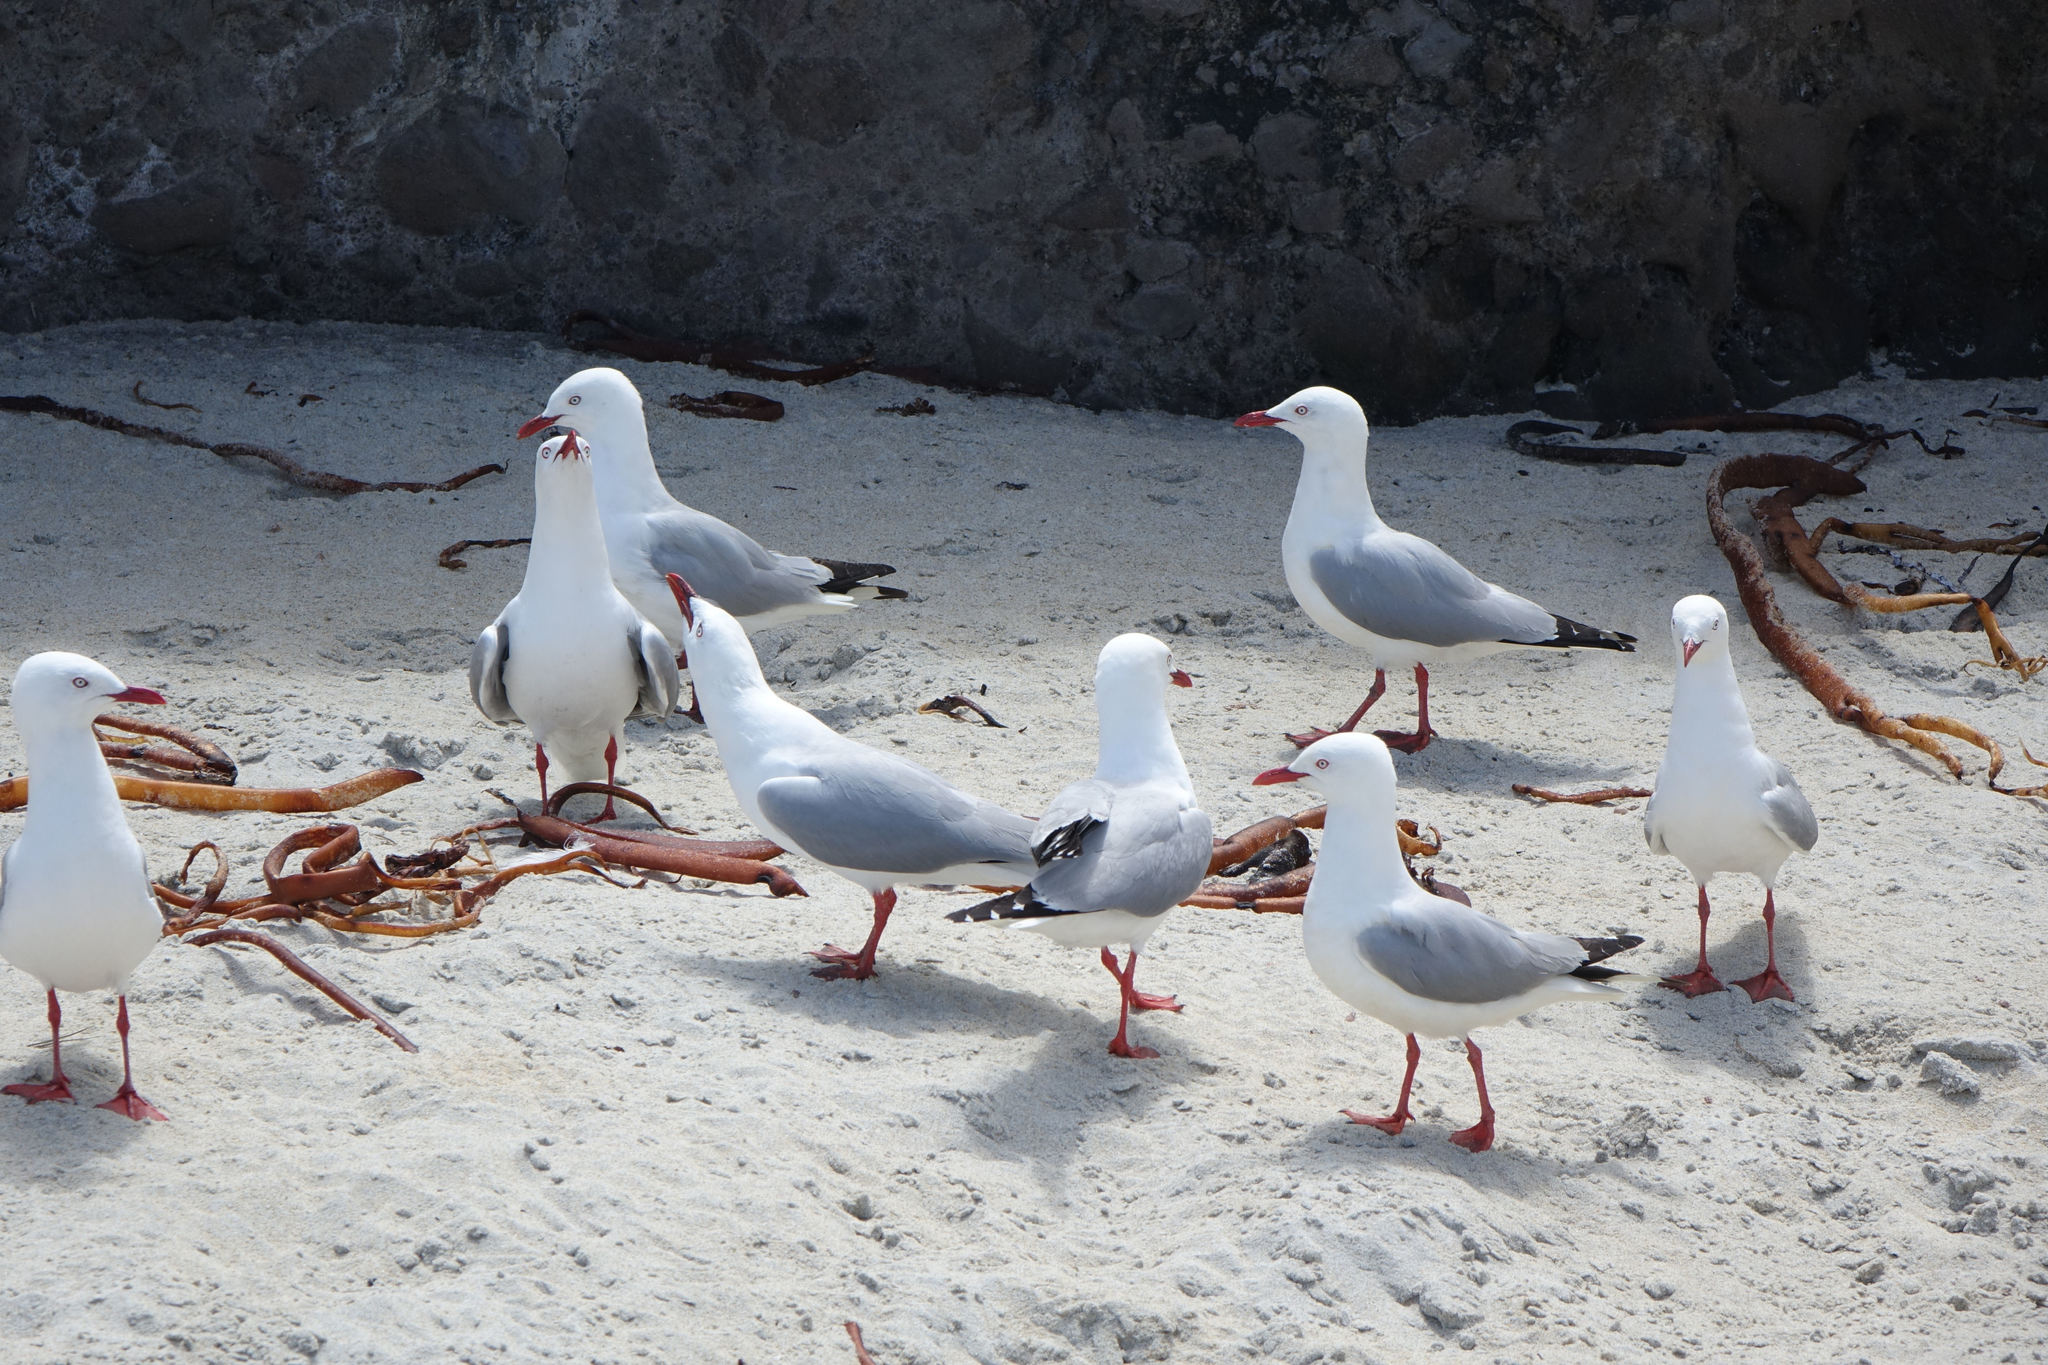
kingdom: Animalia
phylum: Chordata
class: Aves
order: Charadriiformes
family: Laridae
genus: Chroicocephalus
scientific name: Chroicocephalus novaehollandiae
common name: Silver gull
